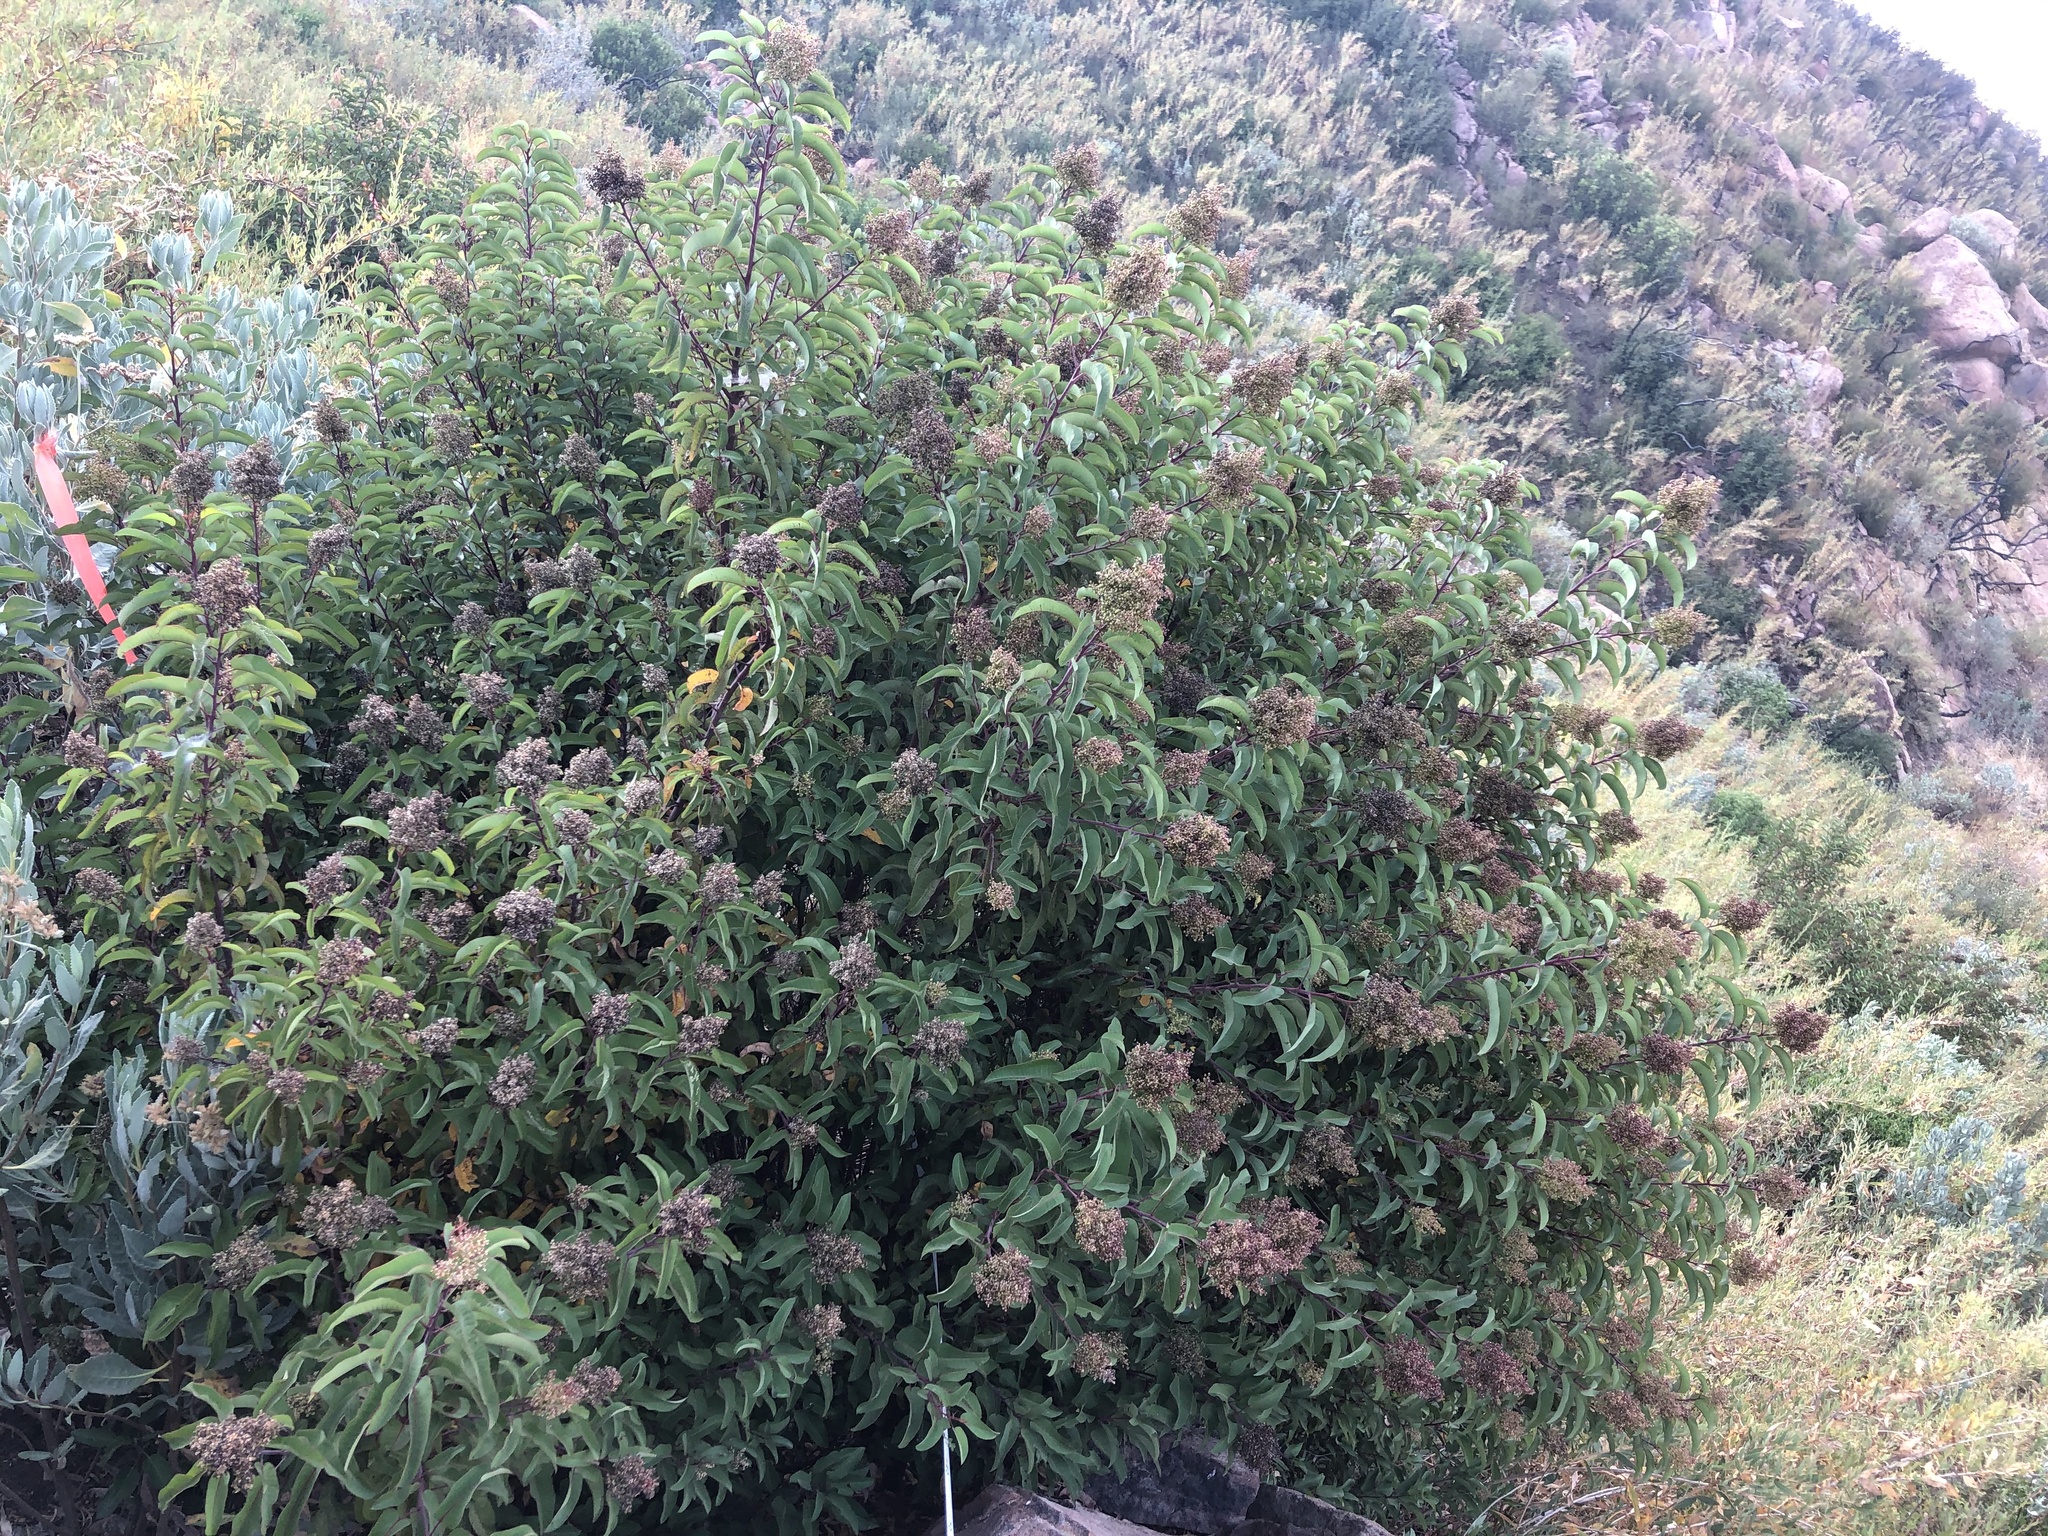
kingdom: Plantae
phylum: Tracheophyta
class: Magnoliopsida
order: Sapindales
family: Anacardiaceae
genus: Malosma
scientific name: Malosma laurina
